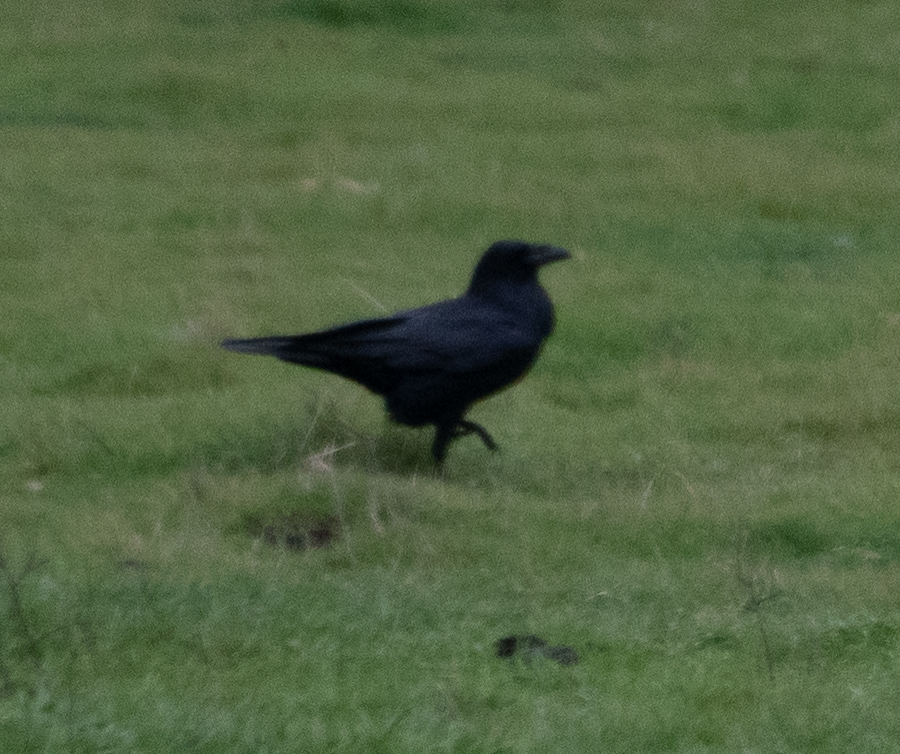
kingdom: Animalia
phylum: Chordata
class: Aves
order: Passeriformes
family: Corvidae
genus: Corvus
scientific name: Corvus corax
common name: Common raven
